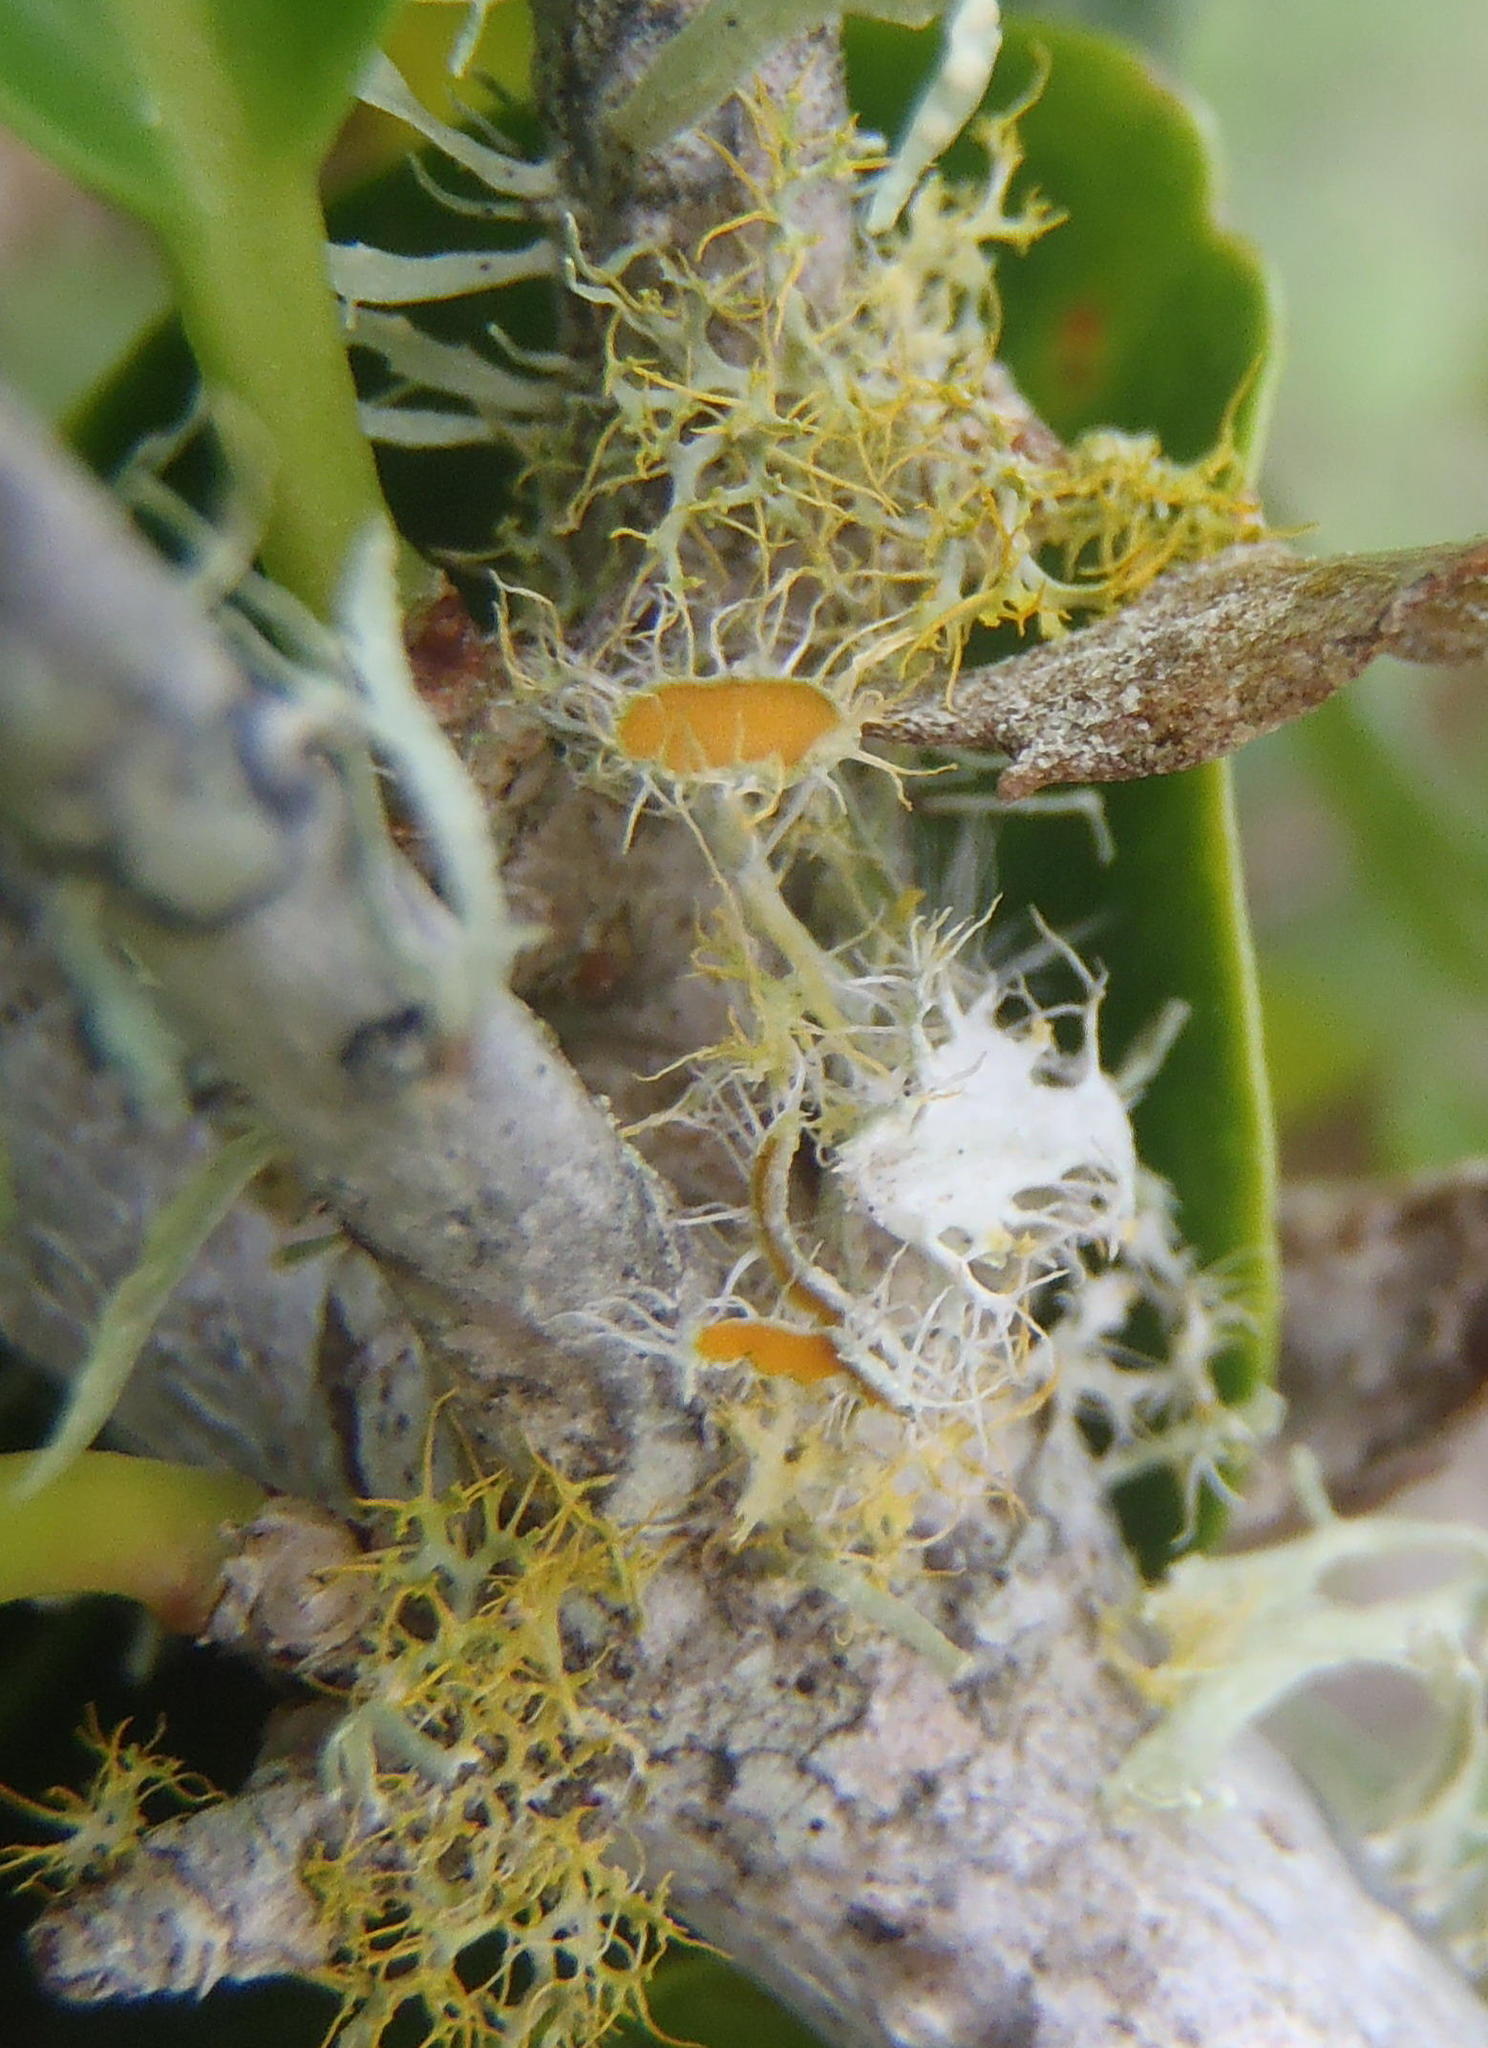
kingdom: Fungi
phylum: Ascomycota
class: Lecanoromycetes
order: Teloschistales
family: Teloschistaceae
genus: Niorma
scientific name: Niorma chrysophthalma
